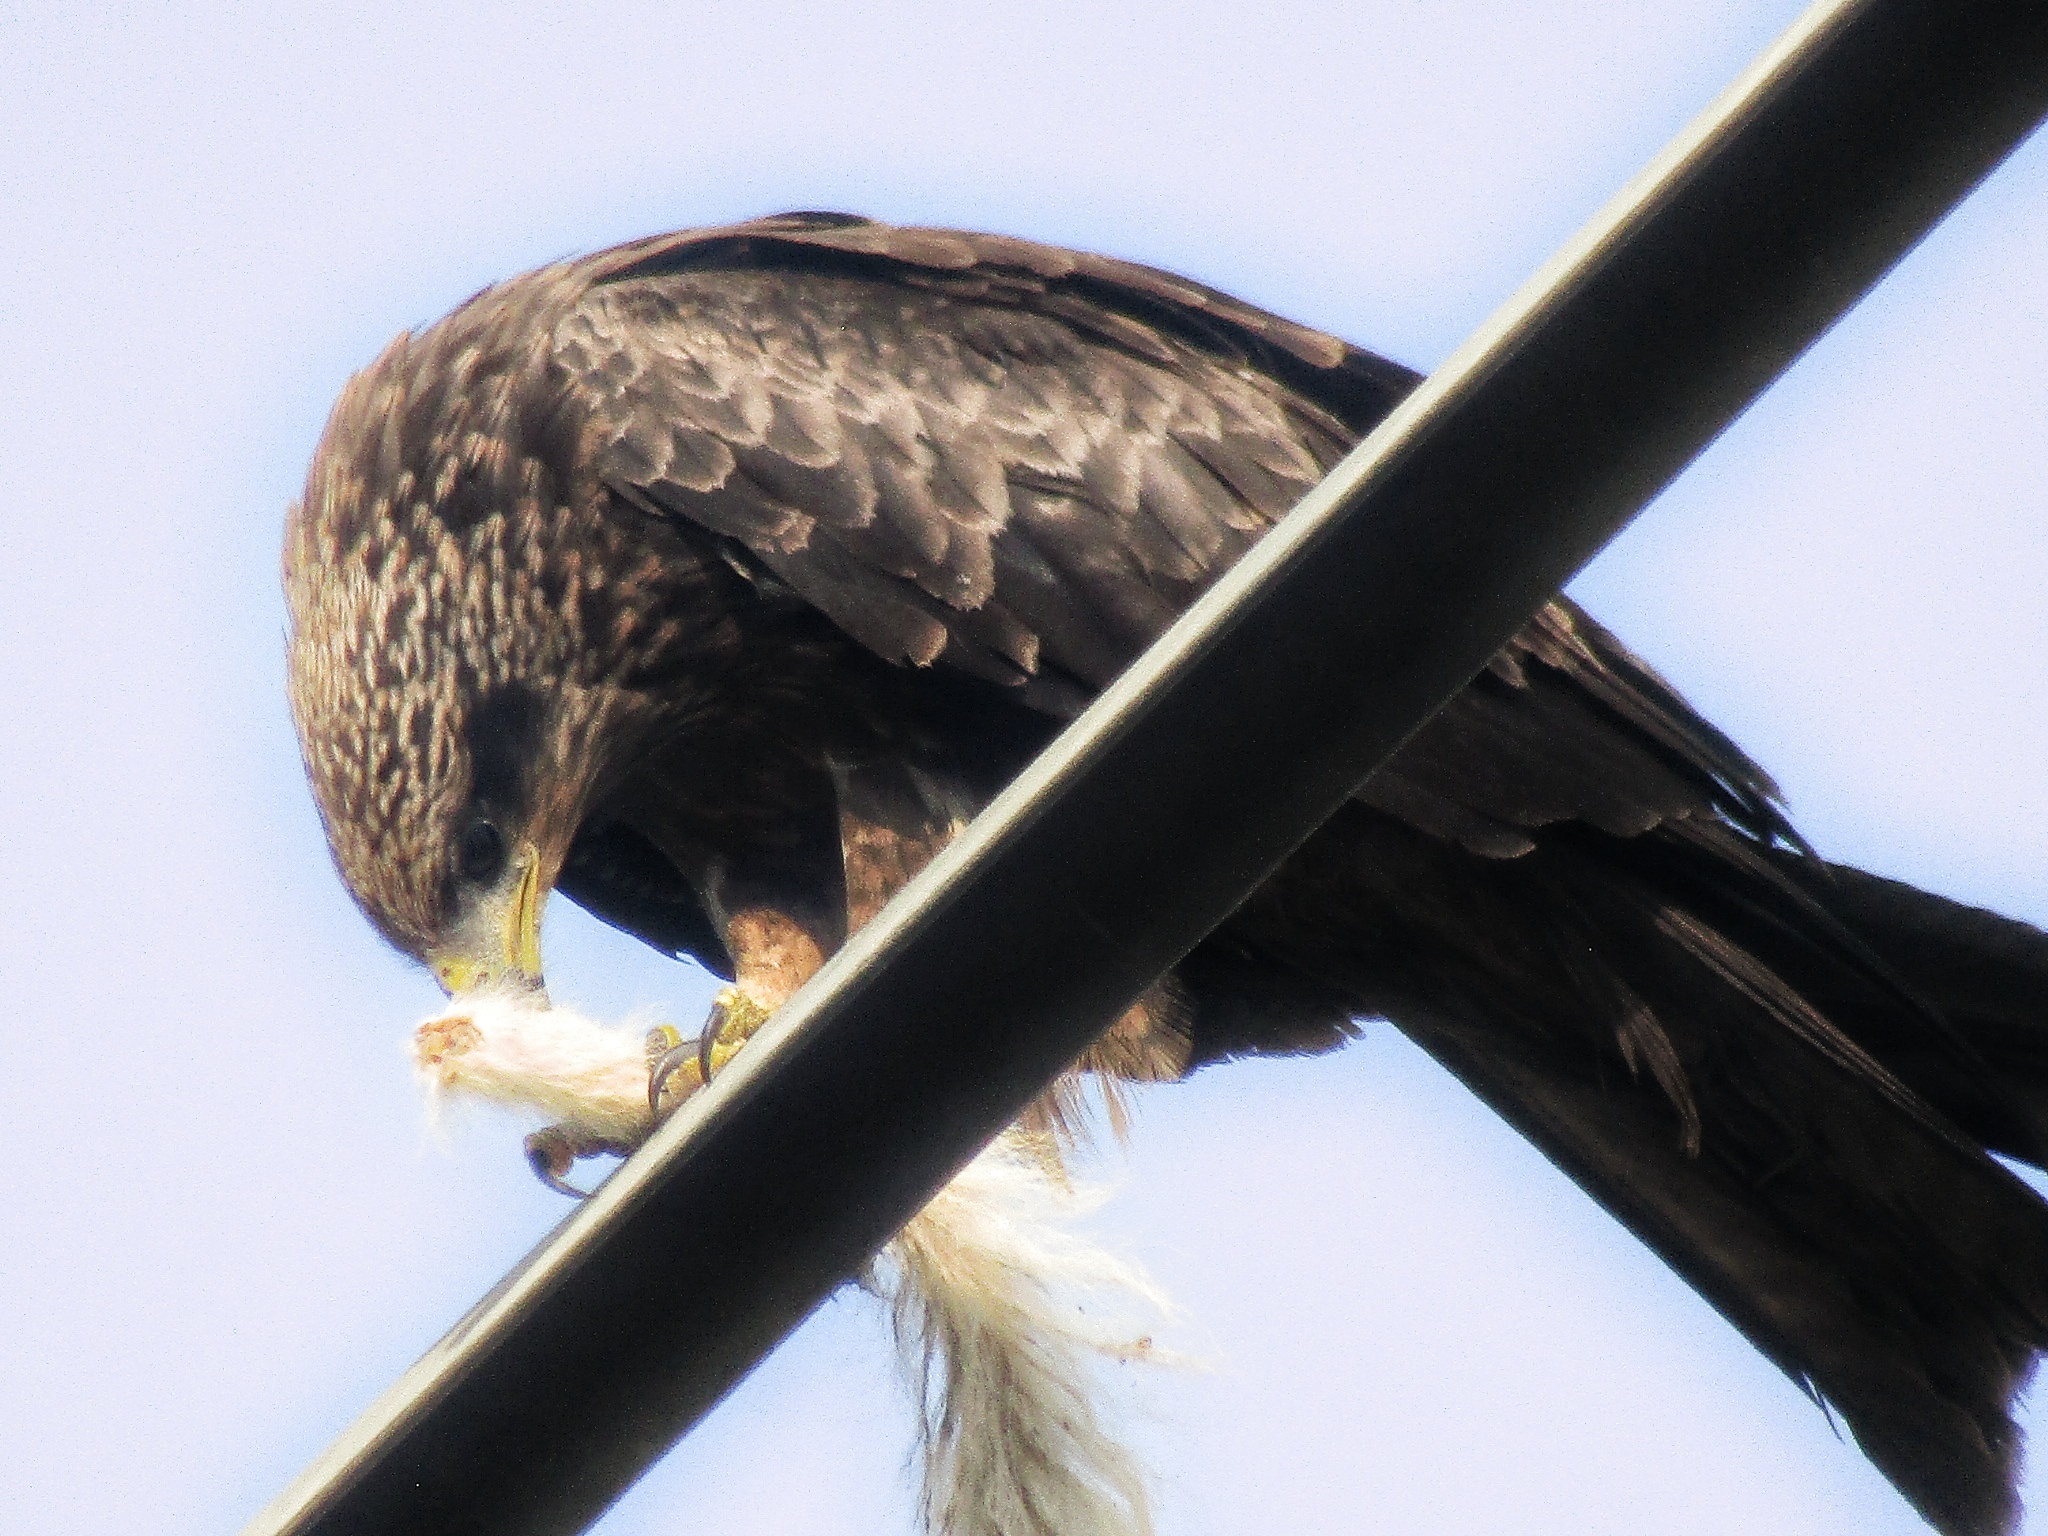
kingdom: Animalia
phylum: Chordata
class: Aves
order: Accipitriformes
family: Accipitridae
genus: Milvus
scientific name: Milvus migrans
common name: Black kite
